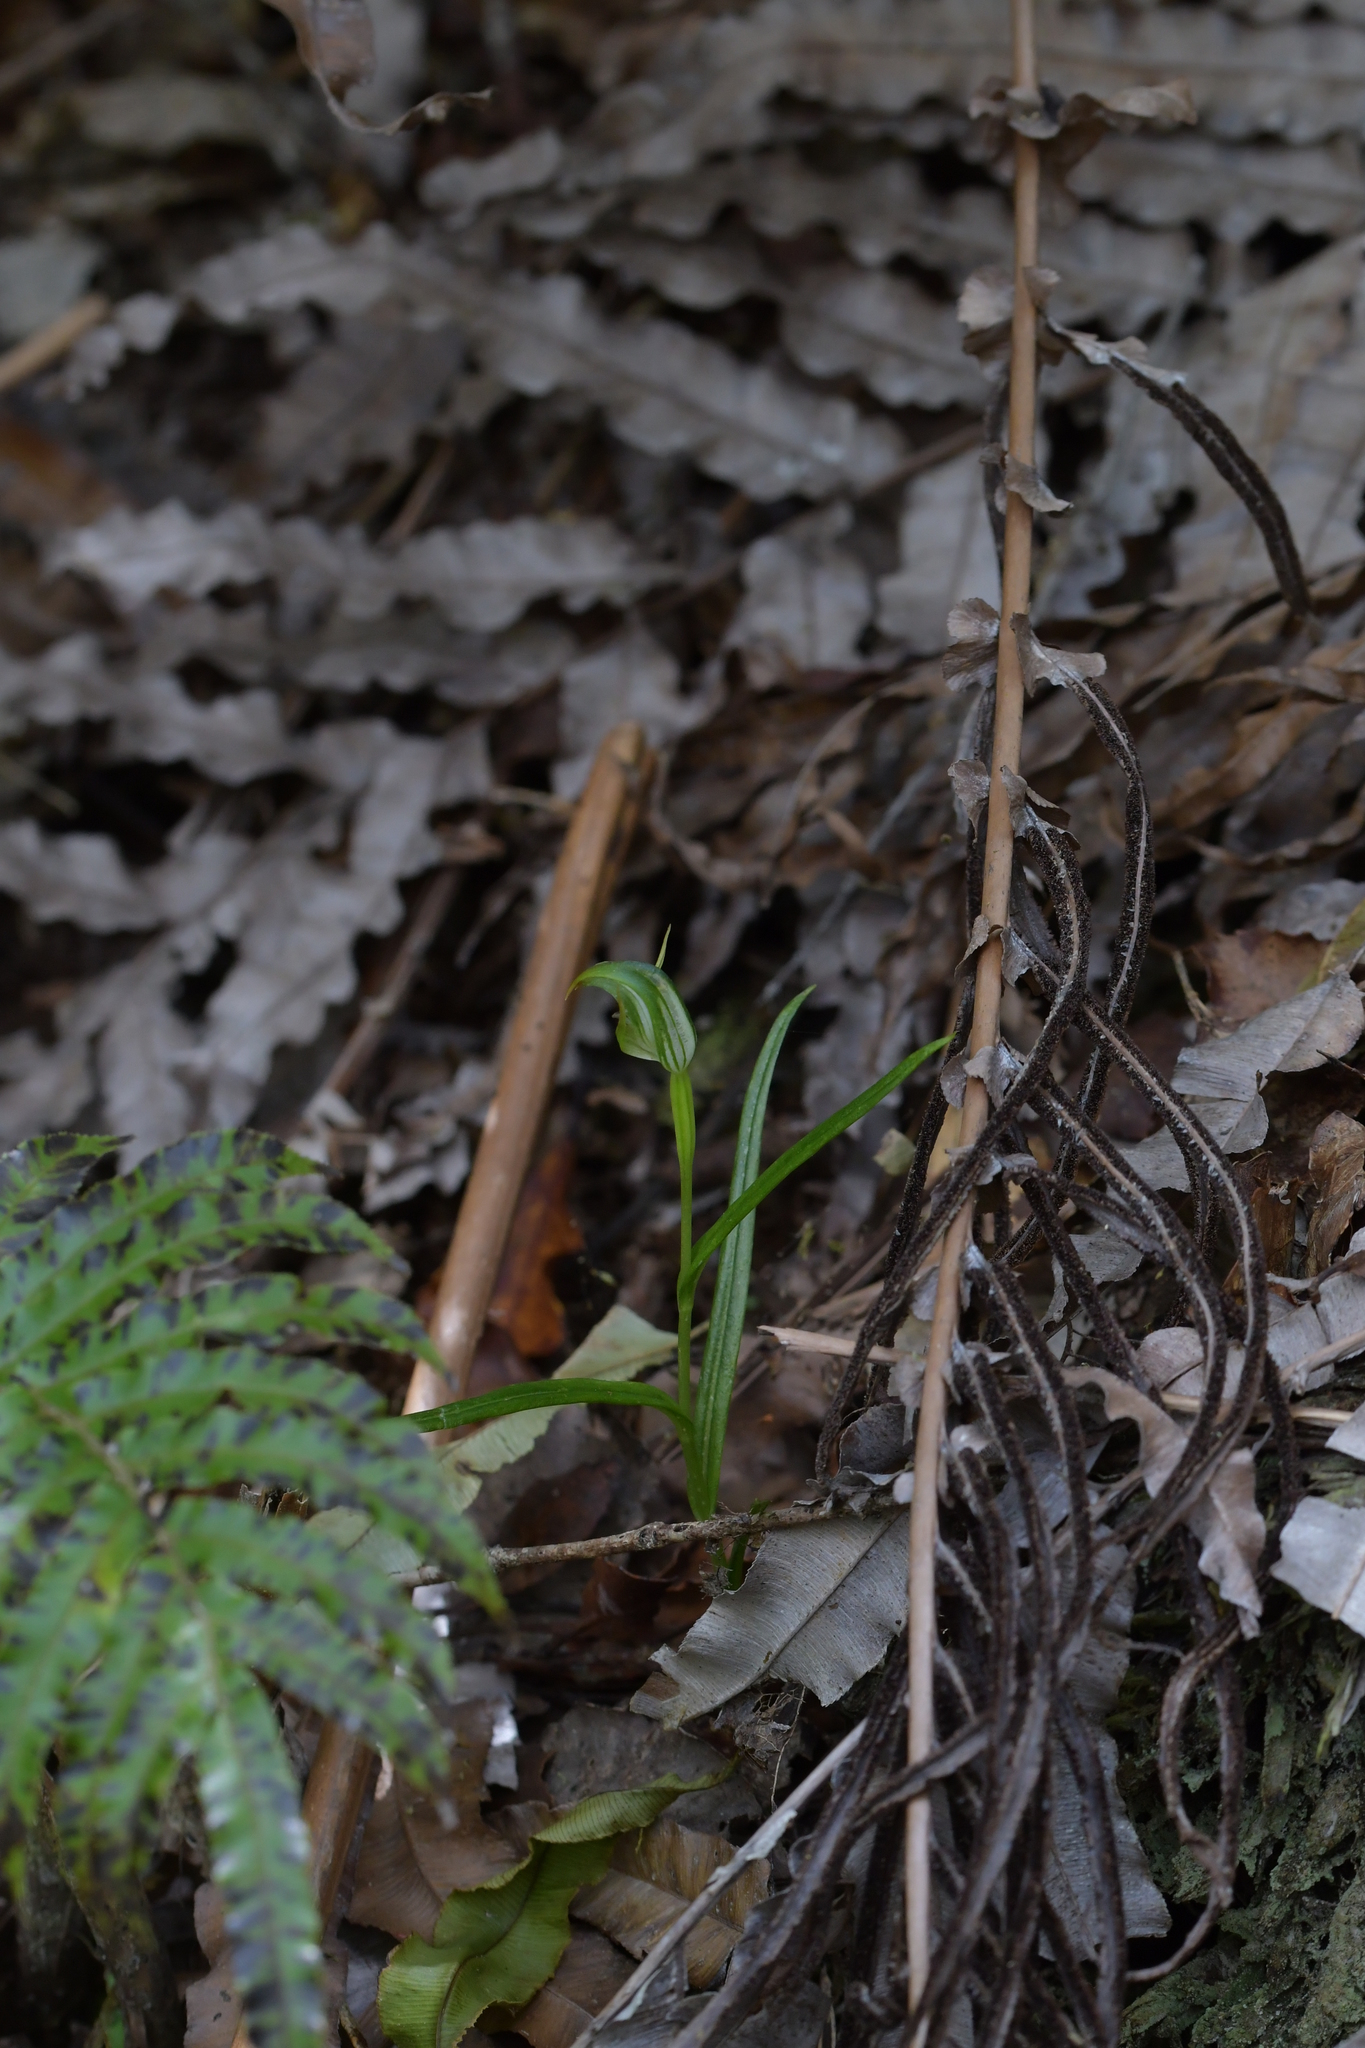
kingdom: Plantae
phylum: Tracheophyta
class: Liliopsida
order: Asparagales
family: Orchidaceae
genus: Pterostylis
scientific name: Pterostylis graminea
